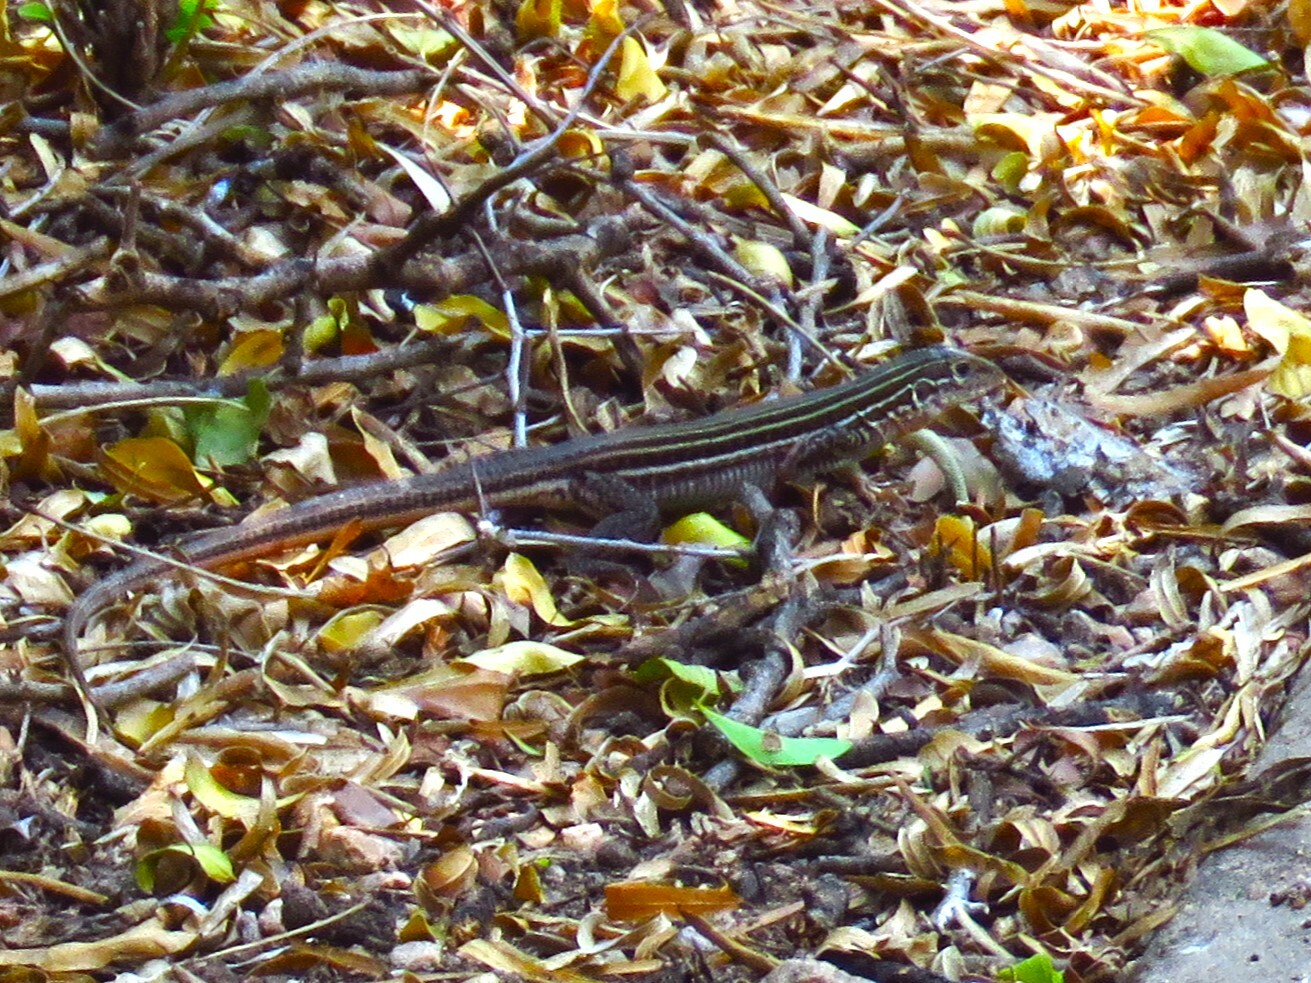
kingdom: Animalia
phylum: Chordata
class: Squamata
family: Teiidae
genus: Aspidoscelis
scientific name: Aspidoscelis gularis
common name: Eastern spotted whiptail
